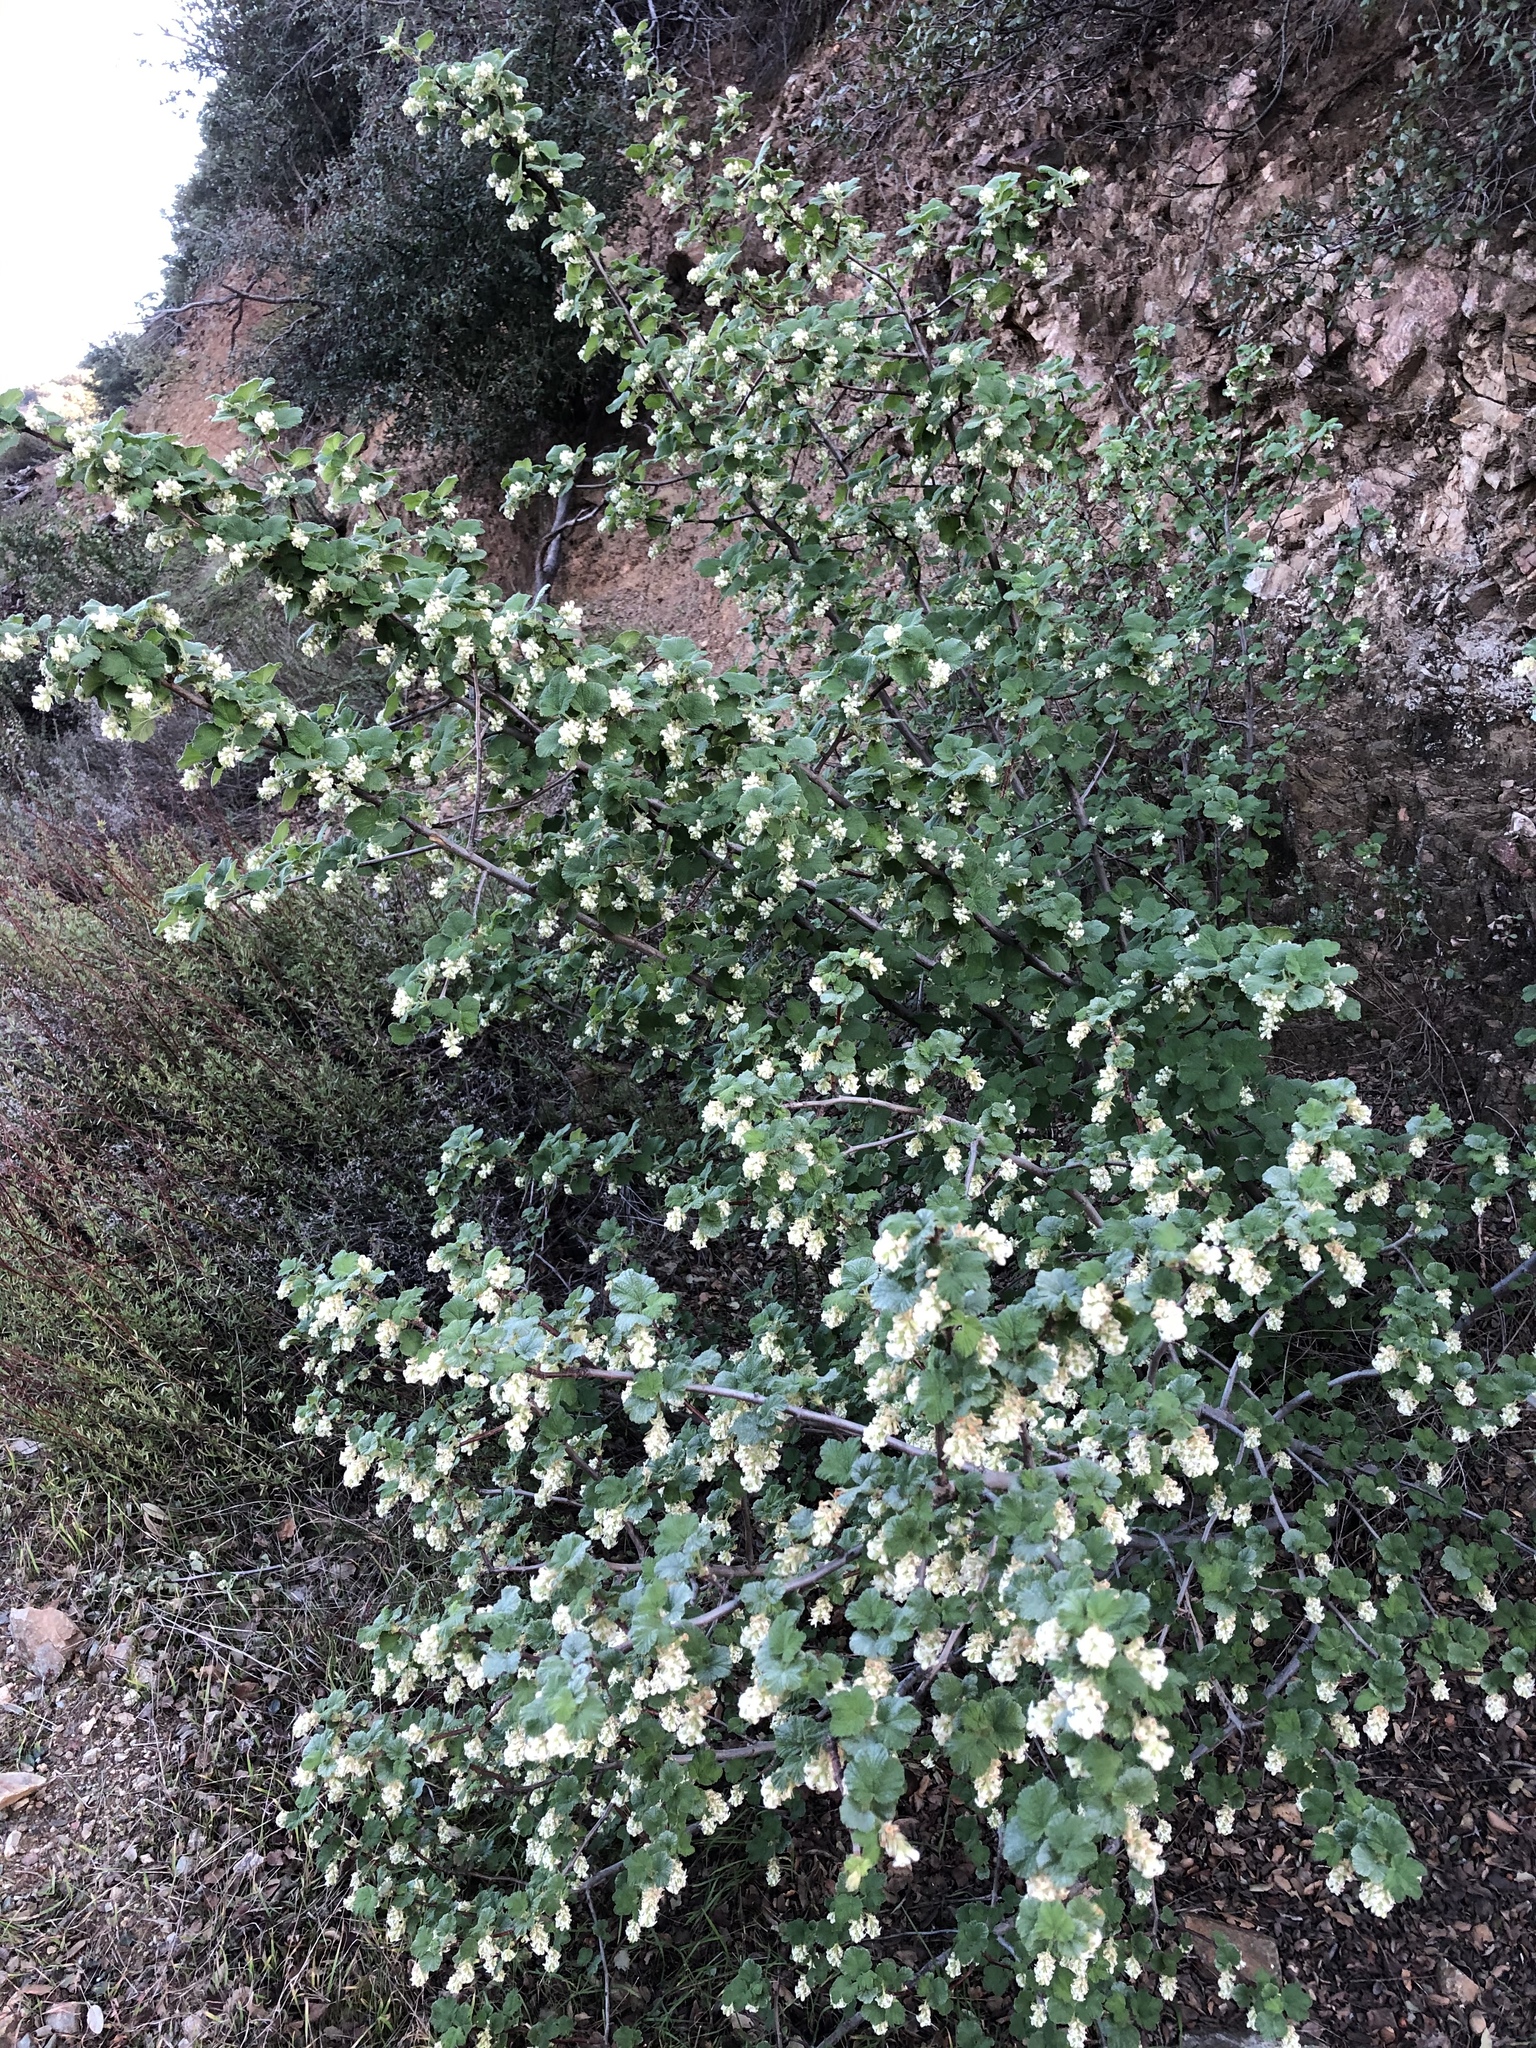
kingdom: Plantae
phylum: Tracheophyta
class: Magnoliopsida
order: Saxifragales
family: Grossulariaceae
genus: Ribes
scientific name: Ribes indecorum
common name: White-flower currant
